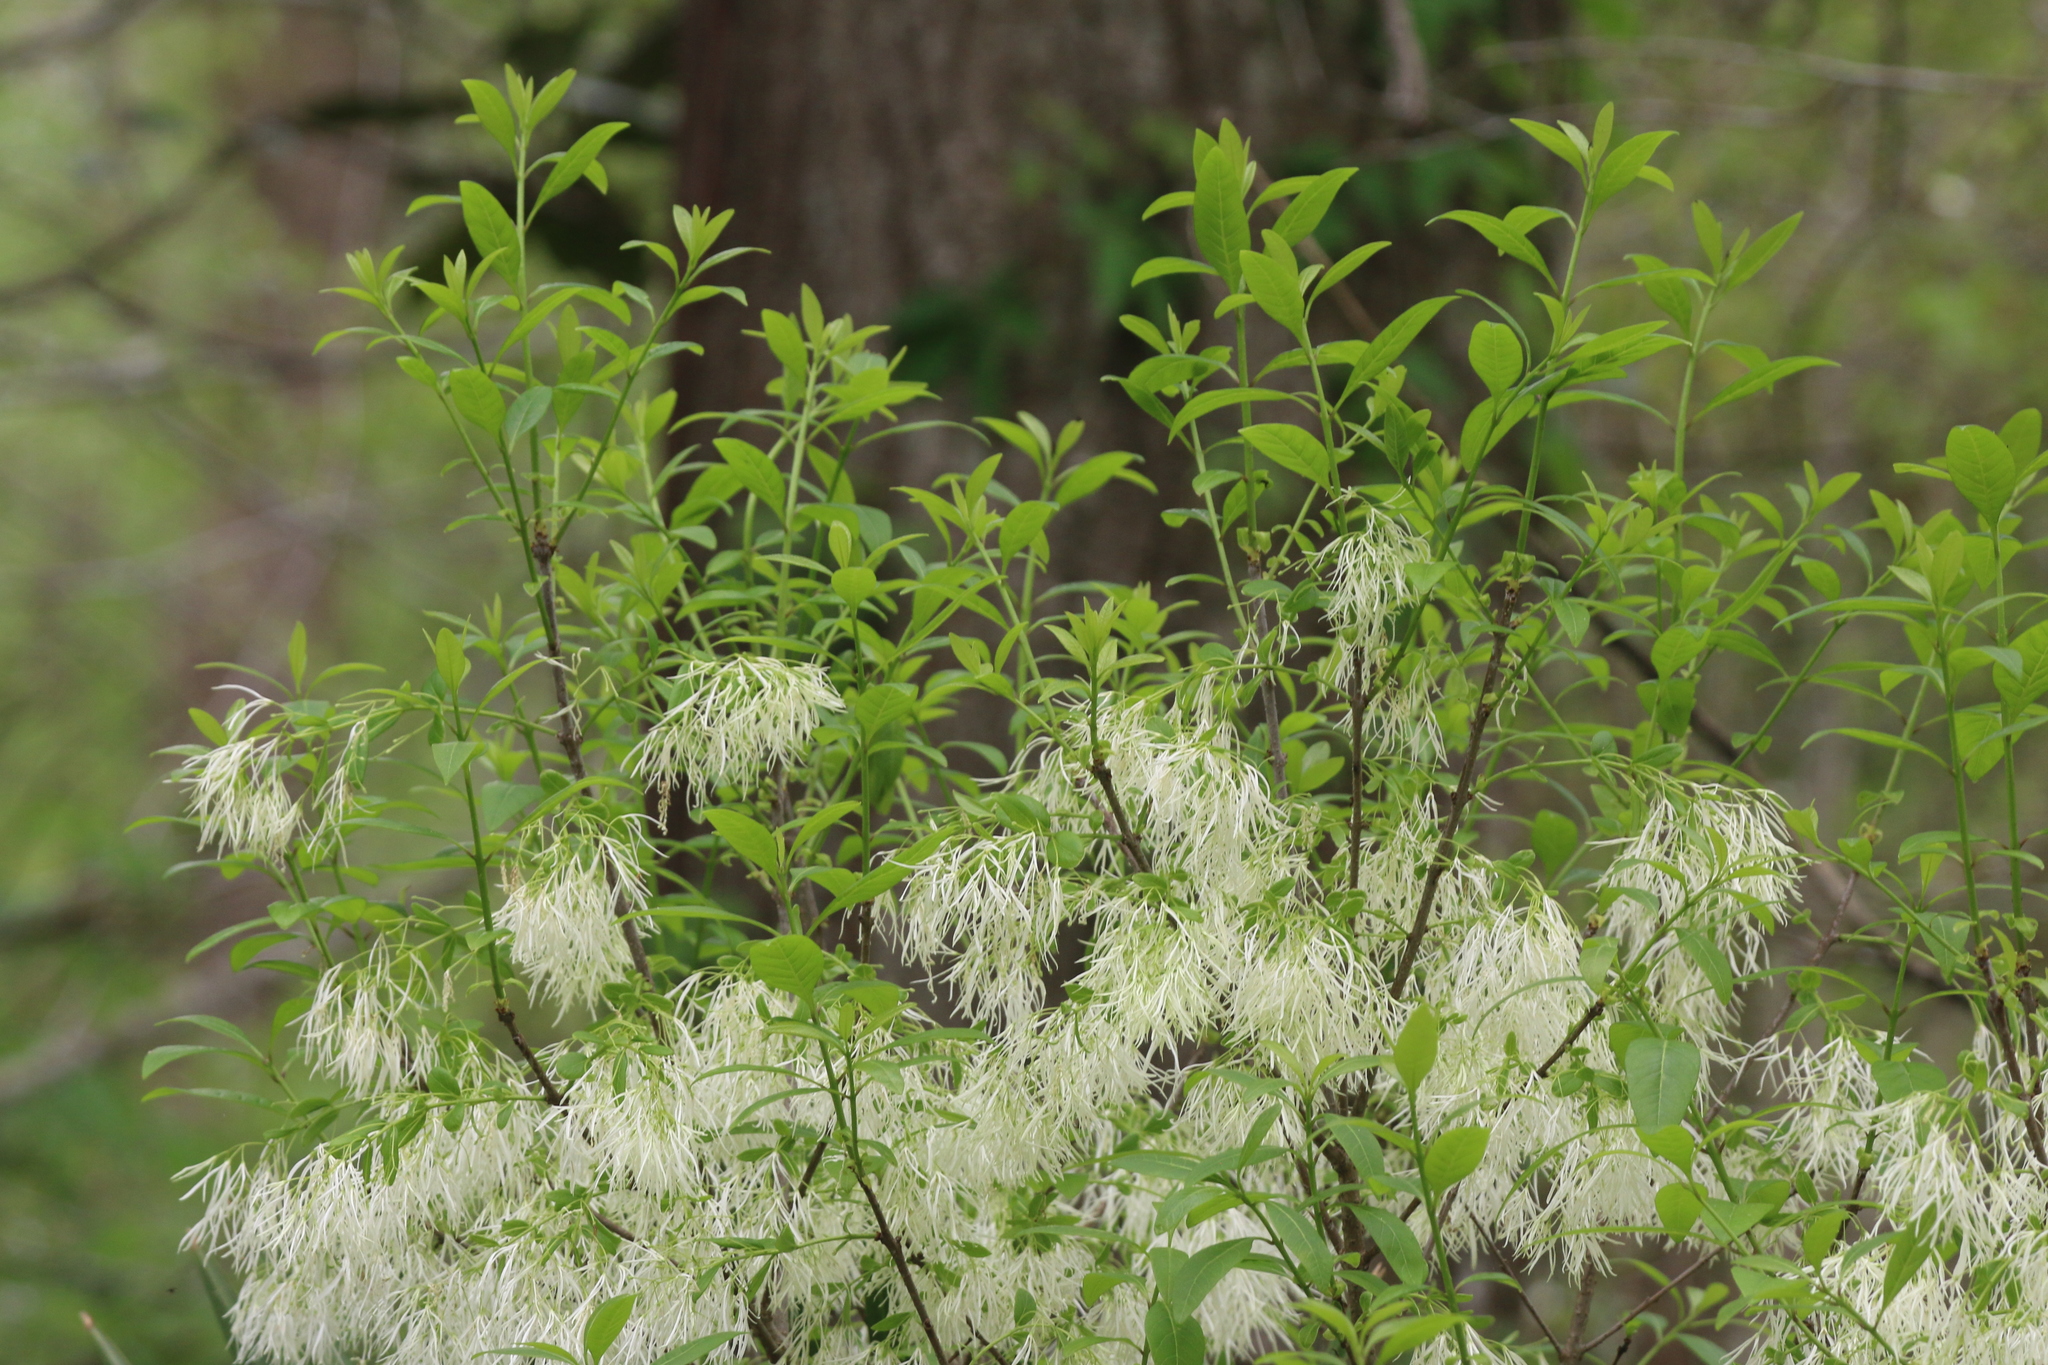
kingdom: Plantae
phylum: Tracheophyta
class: Magnoliopsida
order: Lamiales
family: Oleaceae
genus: Chionanthus
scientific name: Chionanthus virginicus
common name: American fringetree
